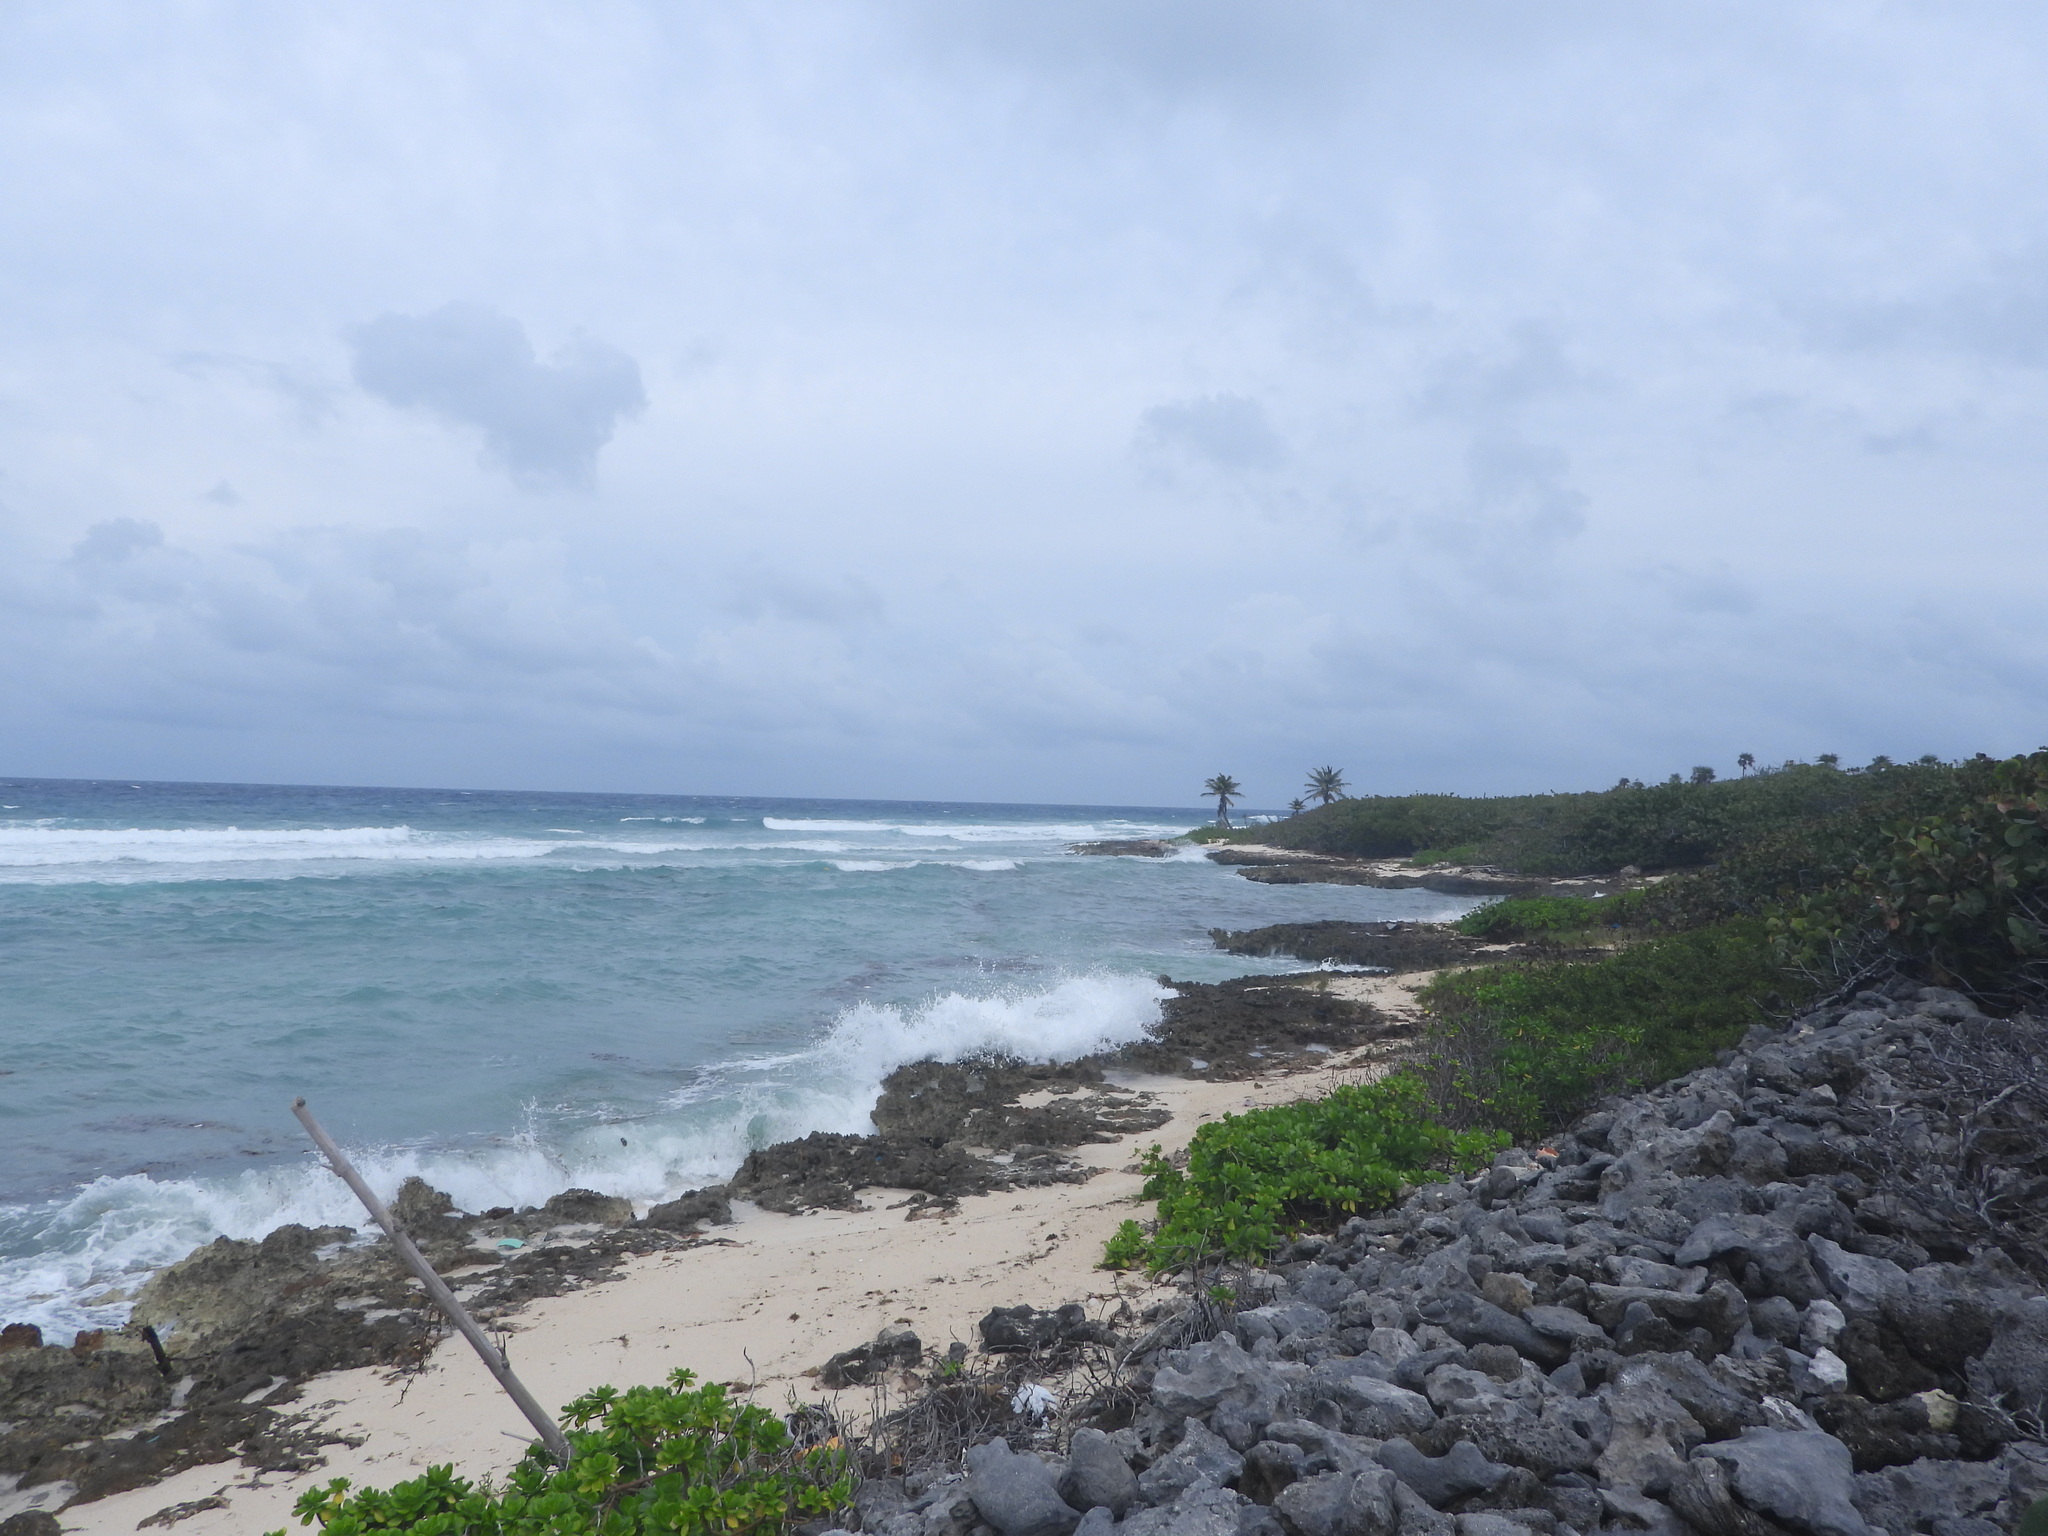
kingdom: Plantae
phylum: Tracheophyta
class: Magnoliopsida
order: Asterales
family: Goodeniaceae
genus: Scaevola
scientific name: Scaevola taccada
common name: Sea lettucetree
